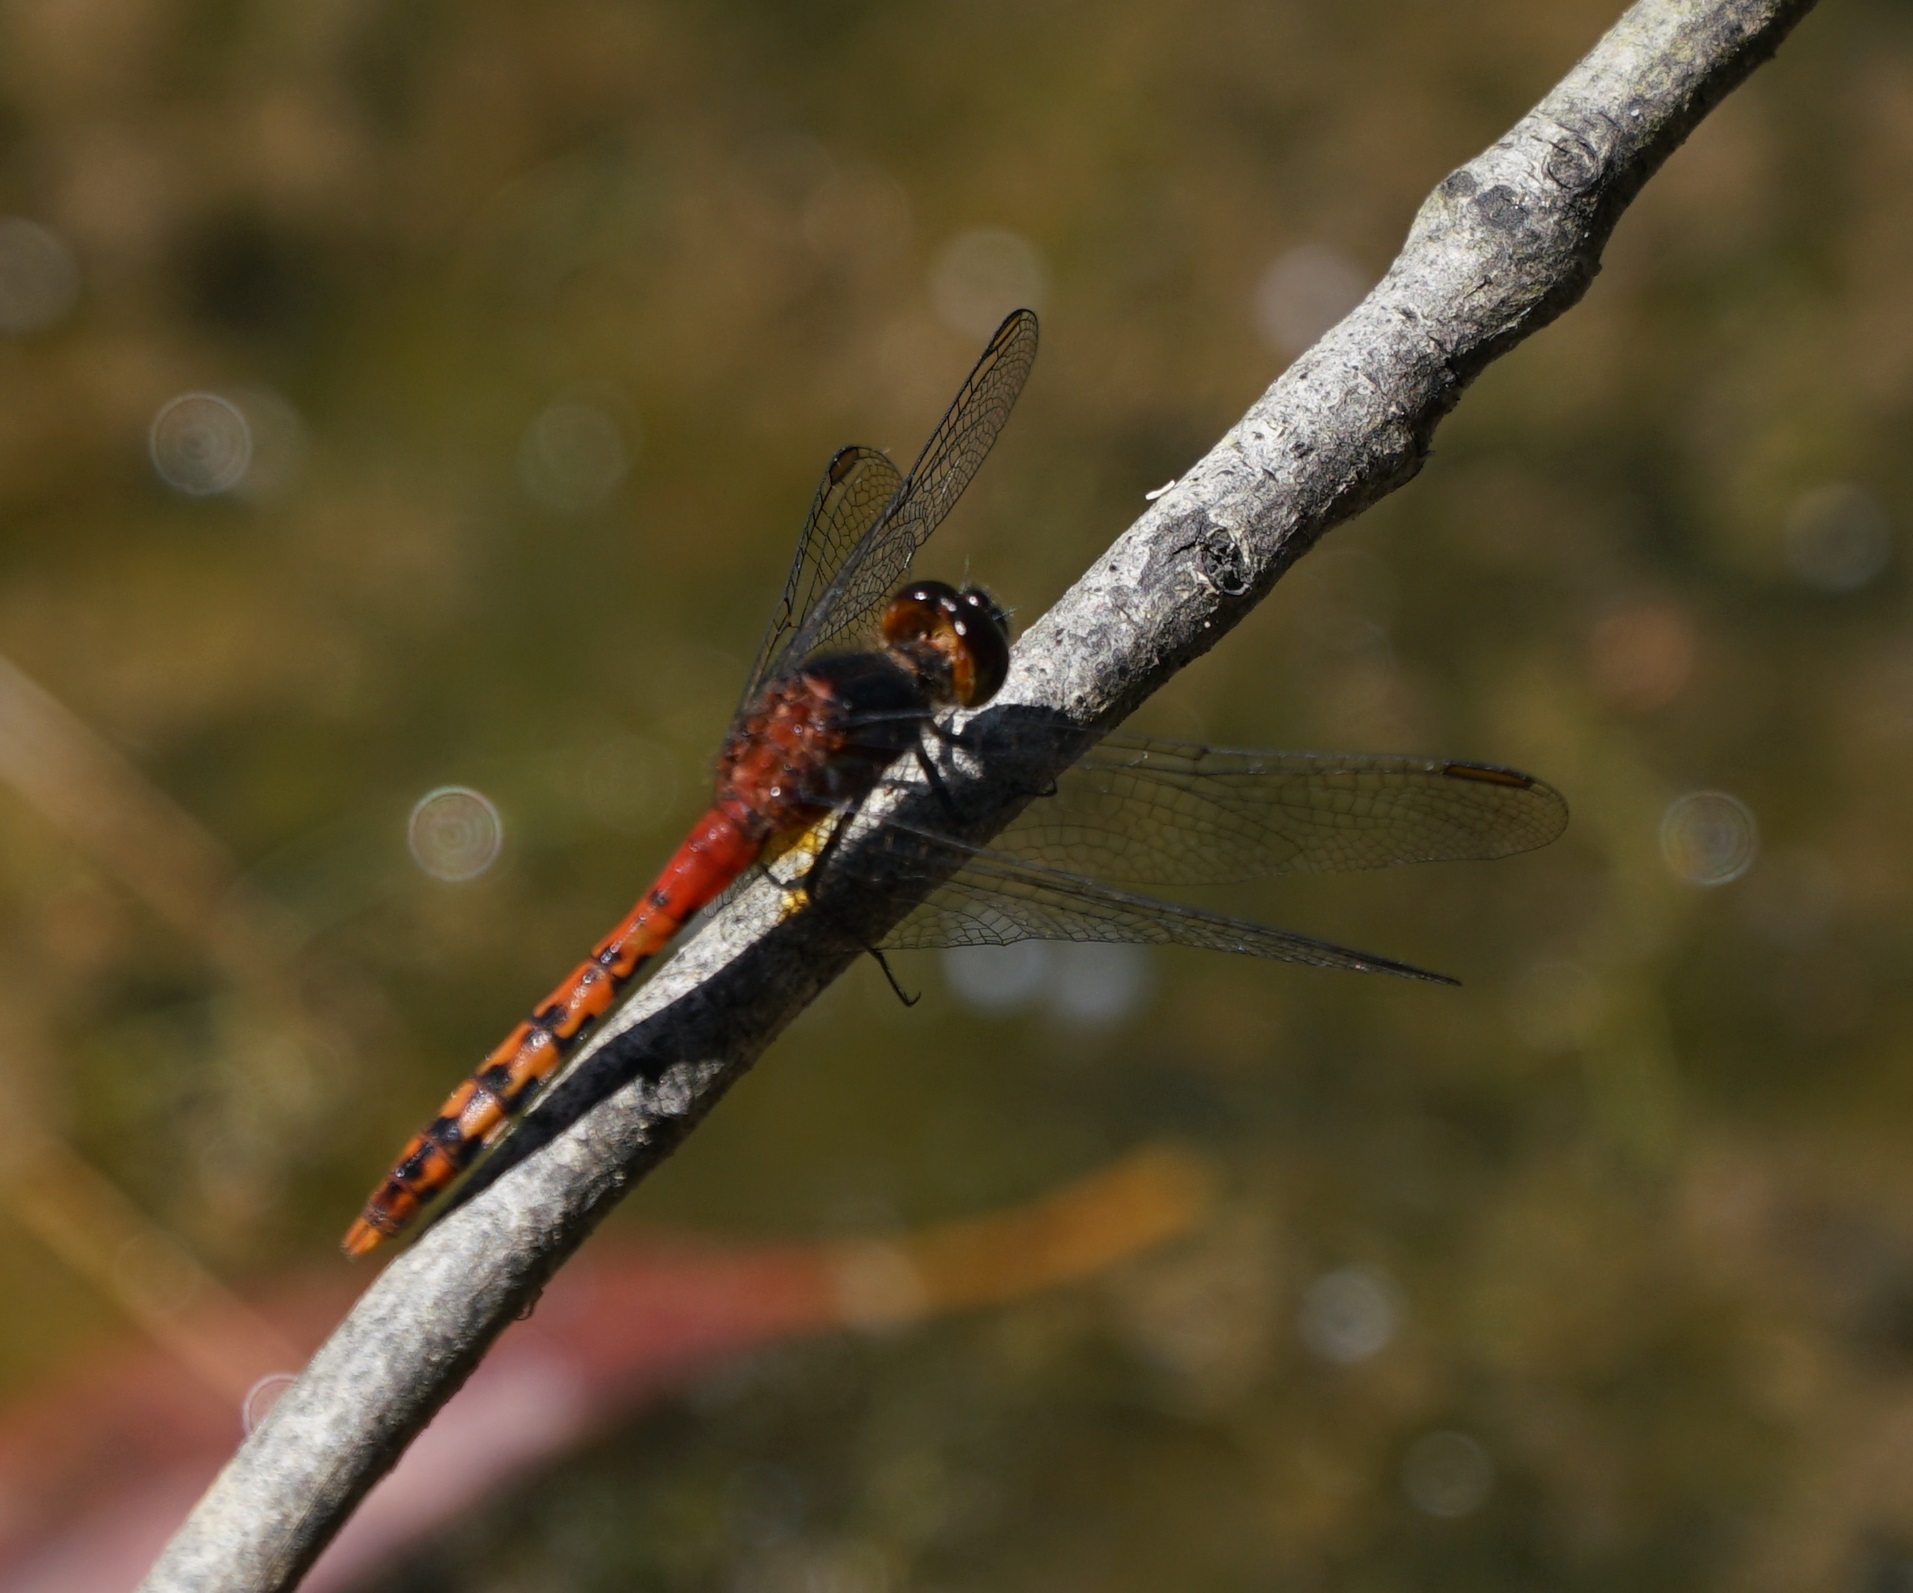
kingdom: Animalia
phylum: Arthropoda
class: Insecta
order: Odonata
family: Libellulidae
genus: Diplacodes
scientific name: Diplacodes melanopsis
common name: Black-faced percher
